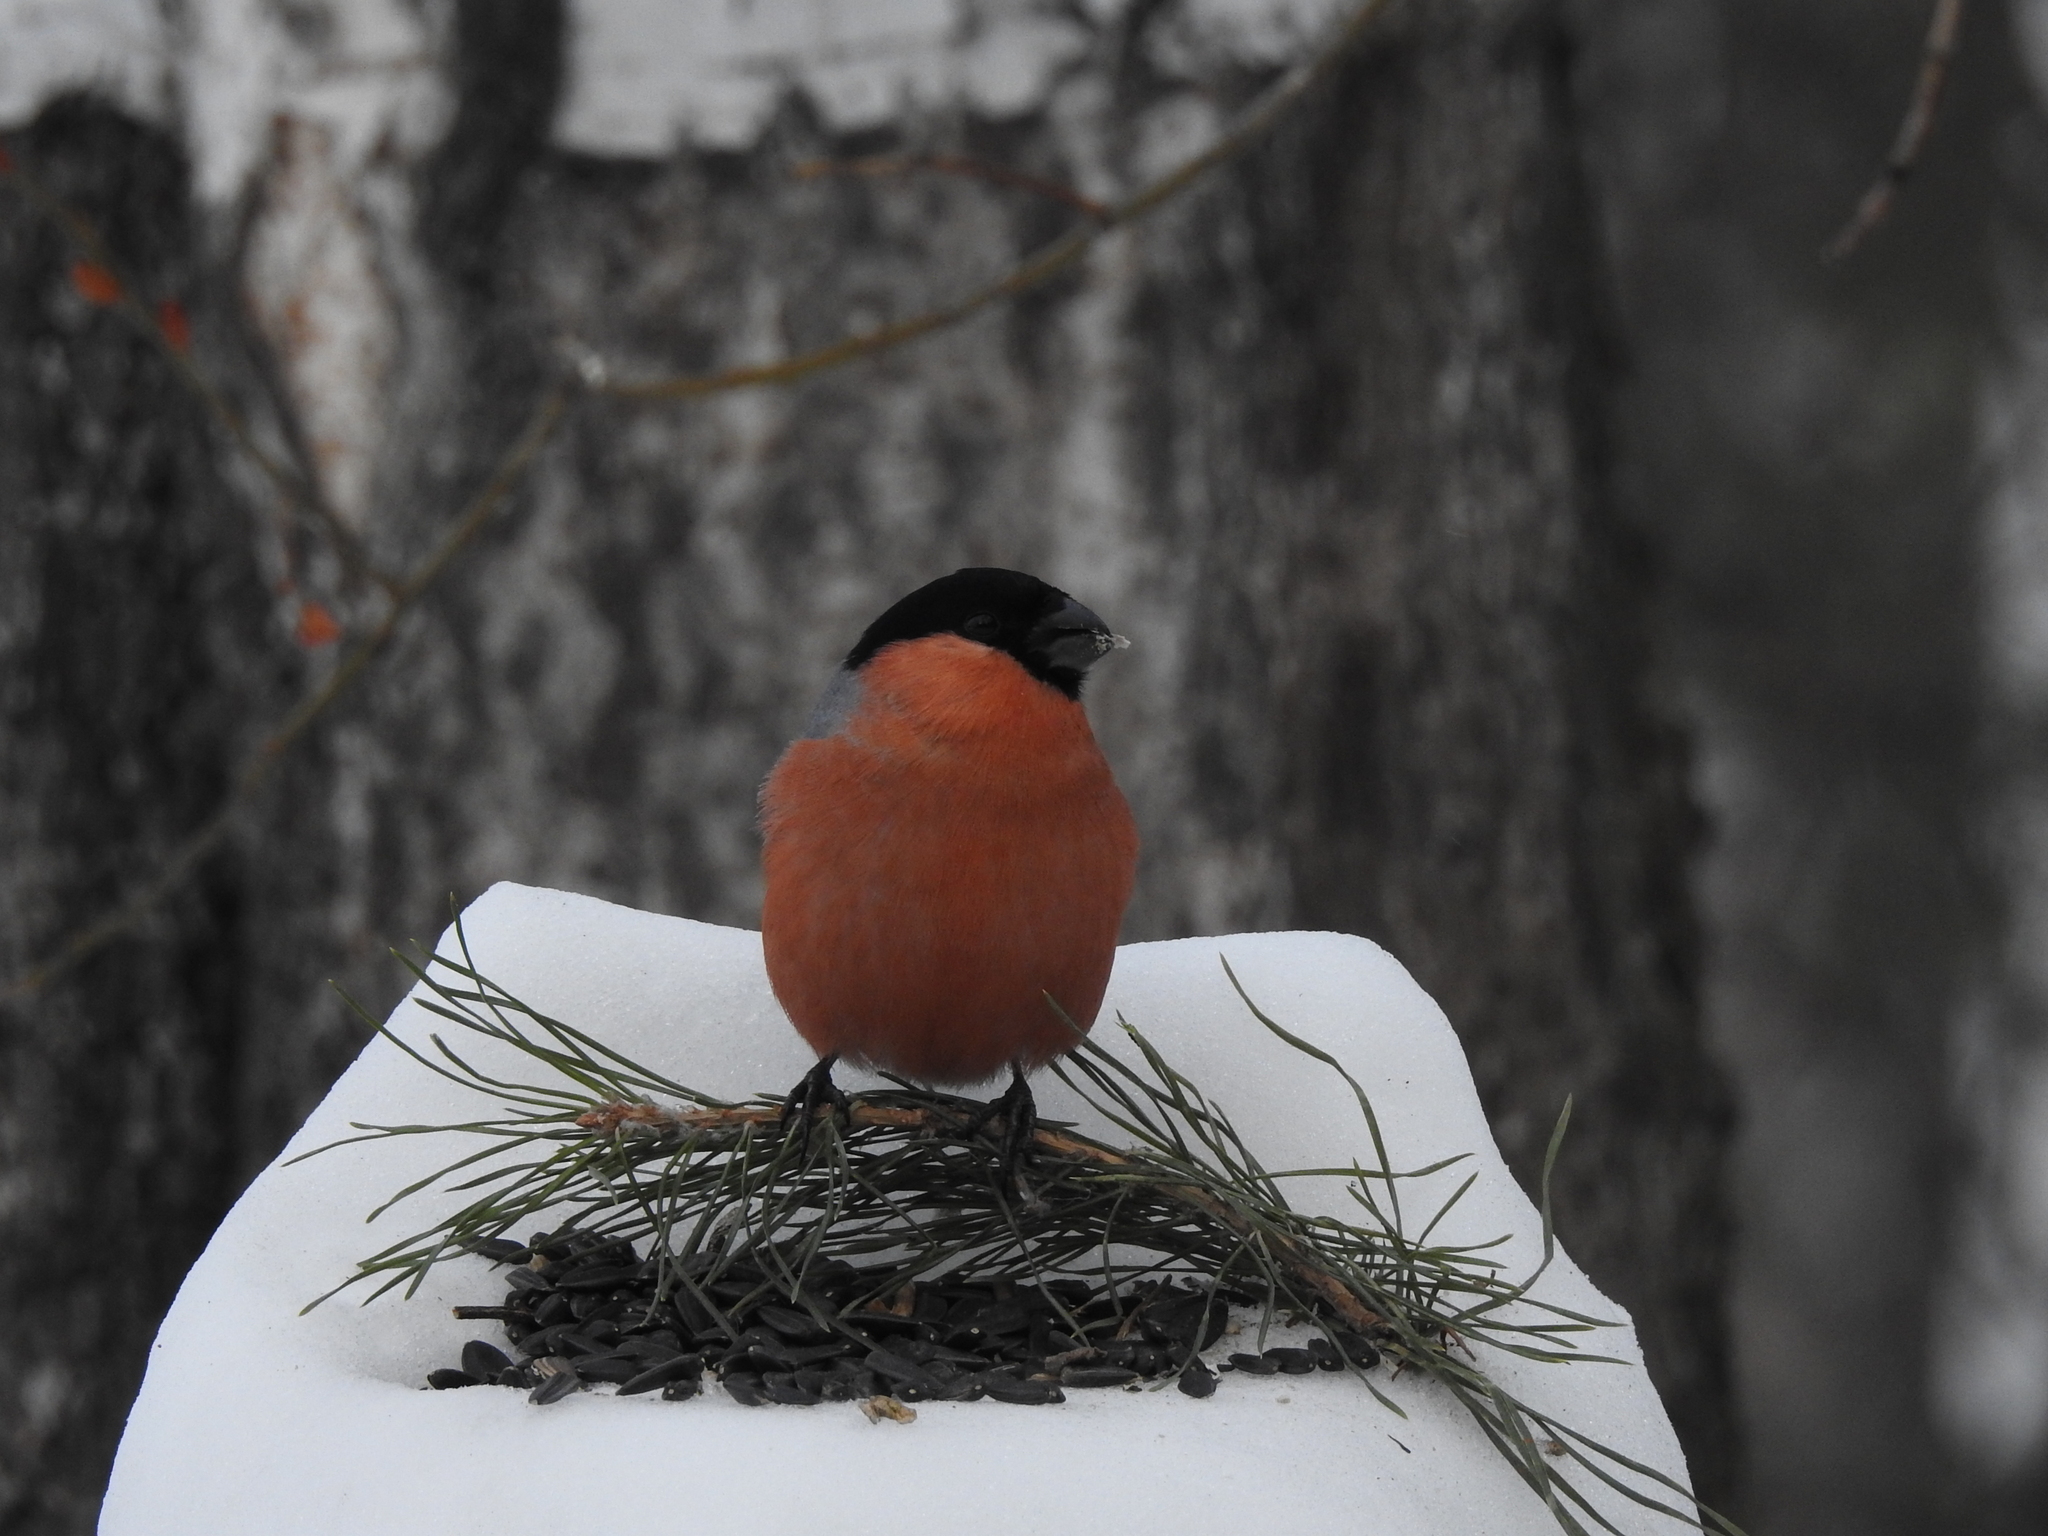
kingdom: Animalia
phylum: Chordata
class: Aves
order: Passeriformes
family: Fringillidae
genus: Pyrrhula
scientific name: Pyrrhula pyrrhula
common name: Eurasian bullfinch
